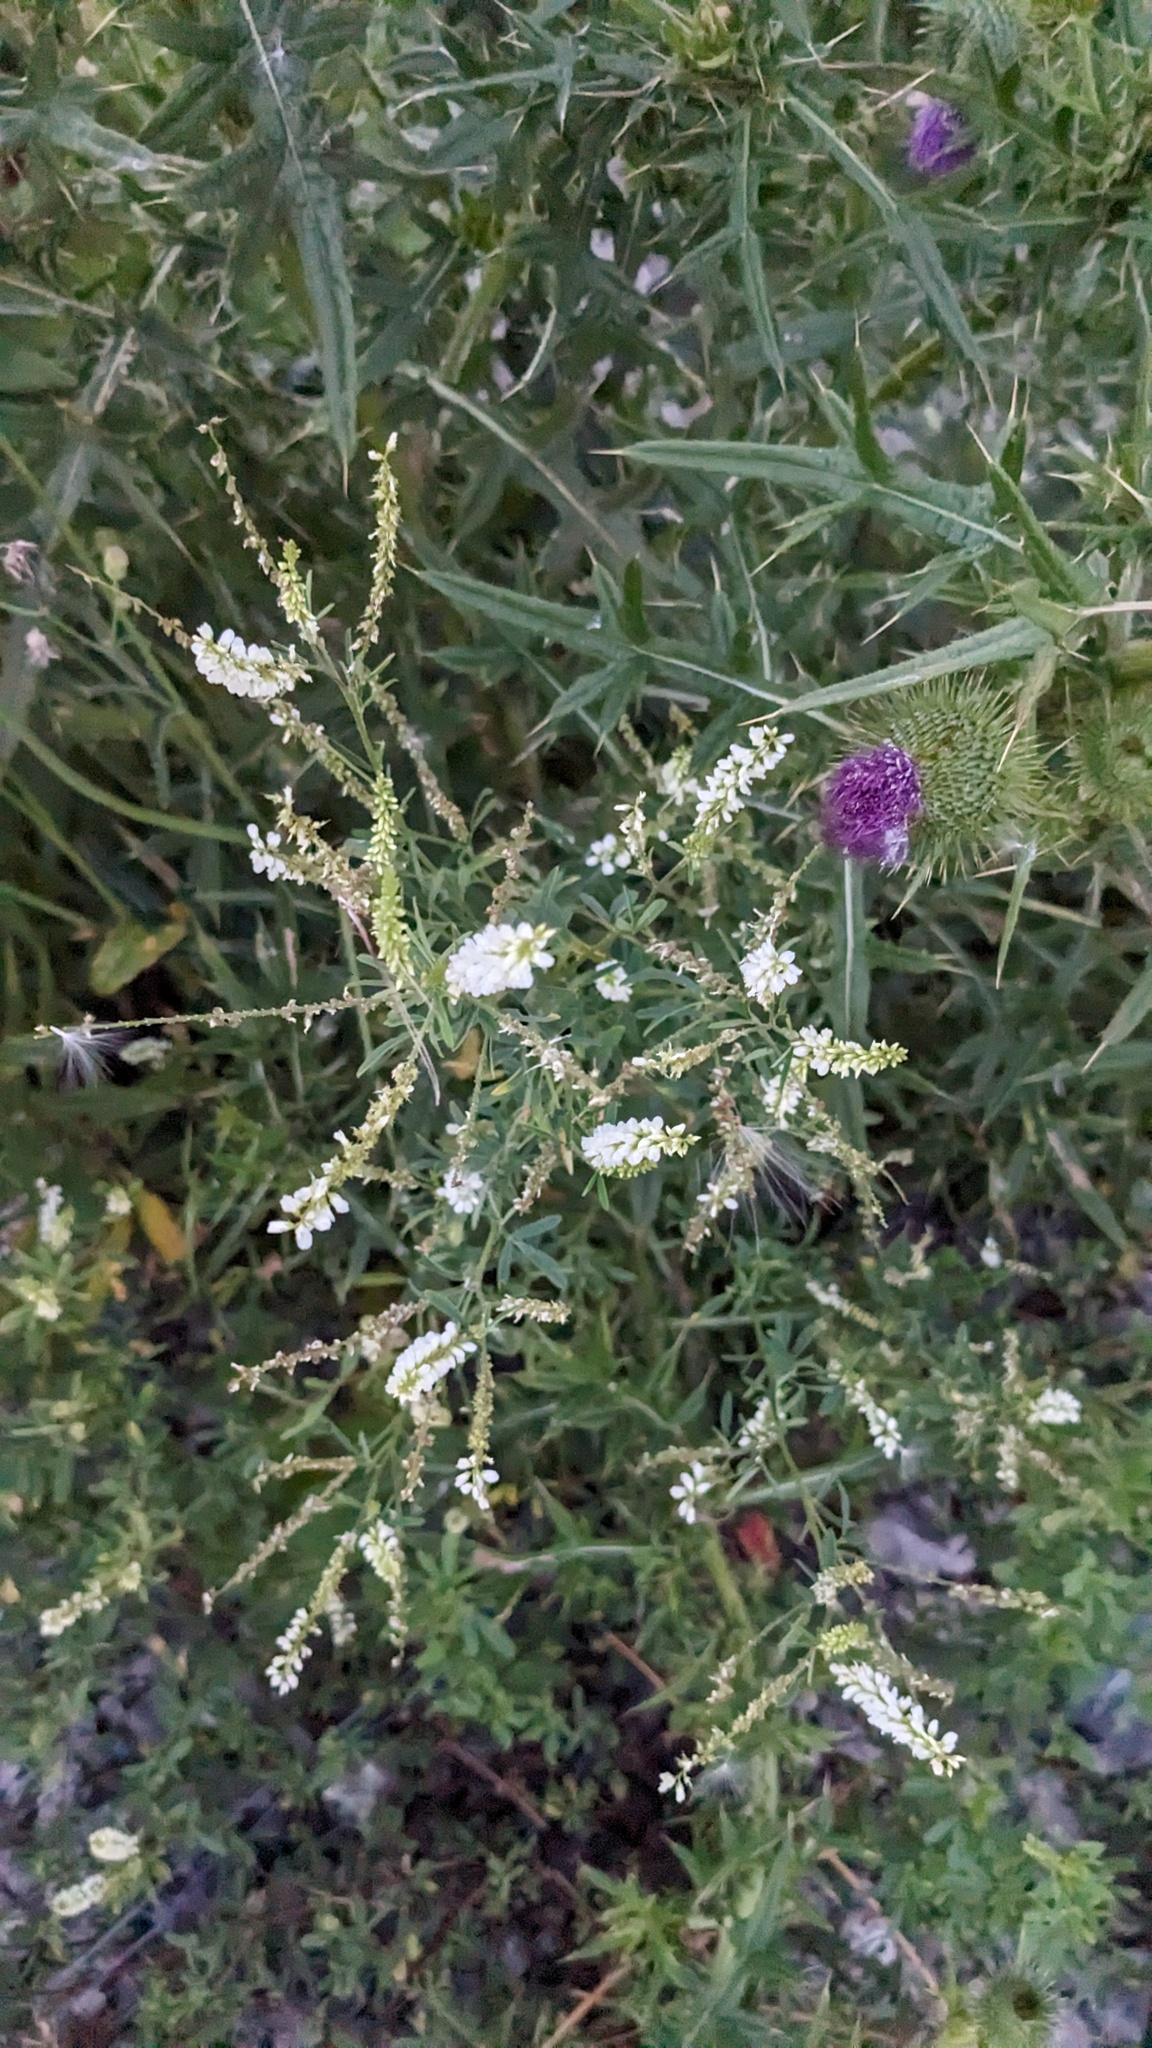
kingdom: Plantae
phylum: Tracheophyta
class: Magnoliopsida
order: Fabales
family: Fabaceae
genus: Melilotus
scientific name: Melilotus albus
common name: White melilot
